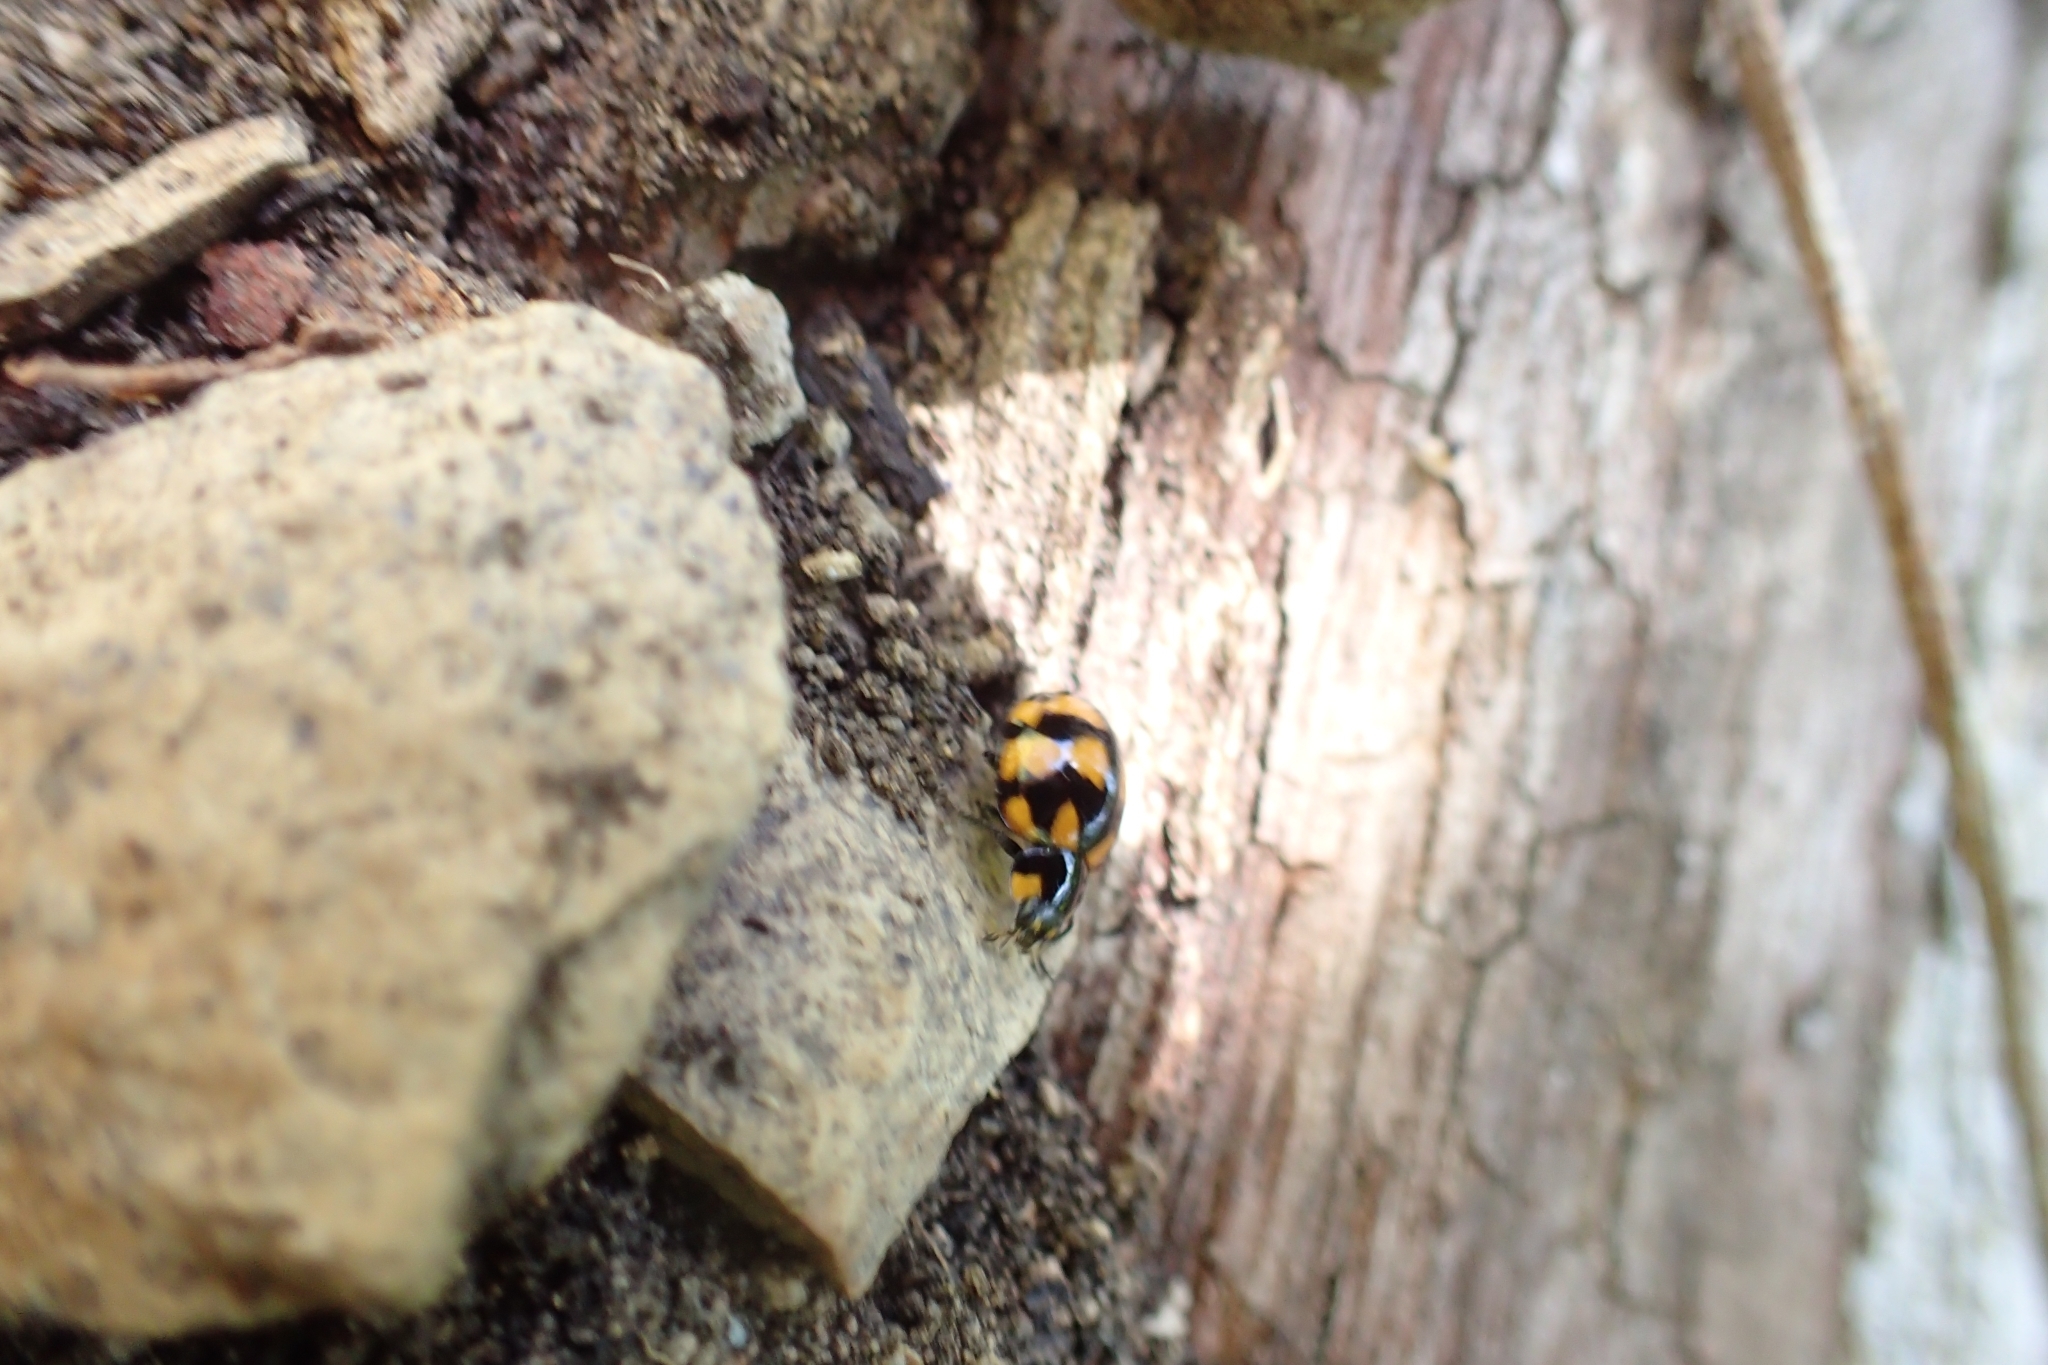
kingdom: Animalia
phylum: Arthropoda
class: Insecta
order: Coleoptera
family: Coccinellidae
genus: Illeis
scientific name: Illeis galbula
